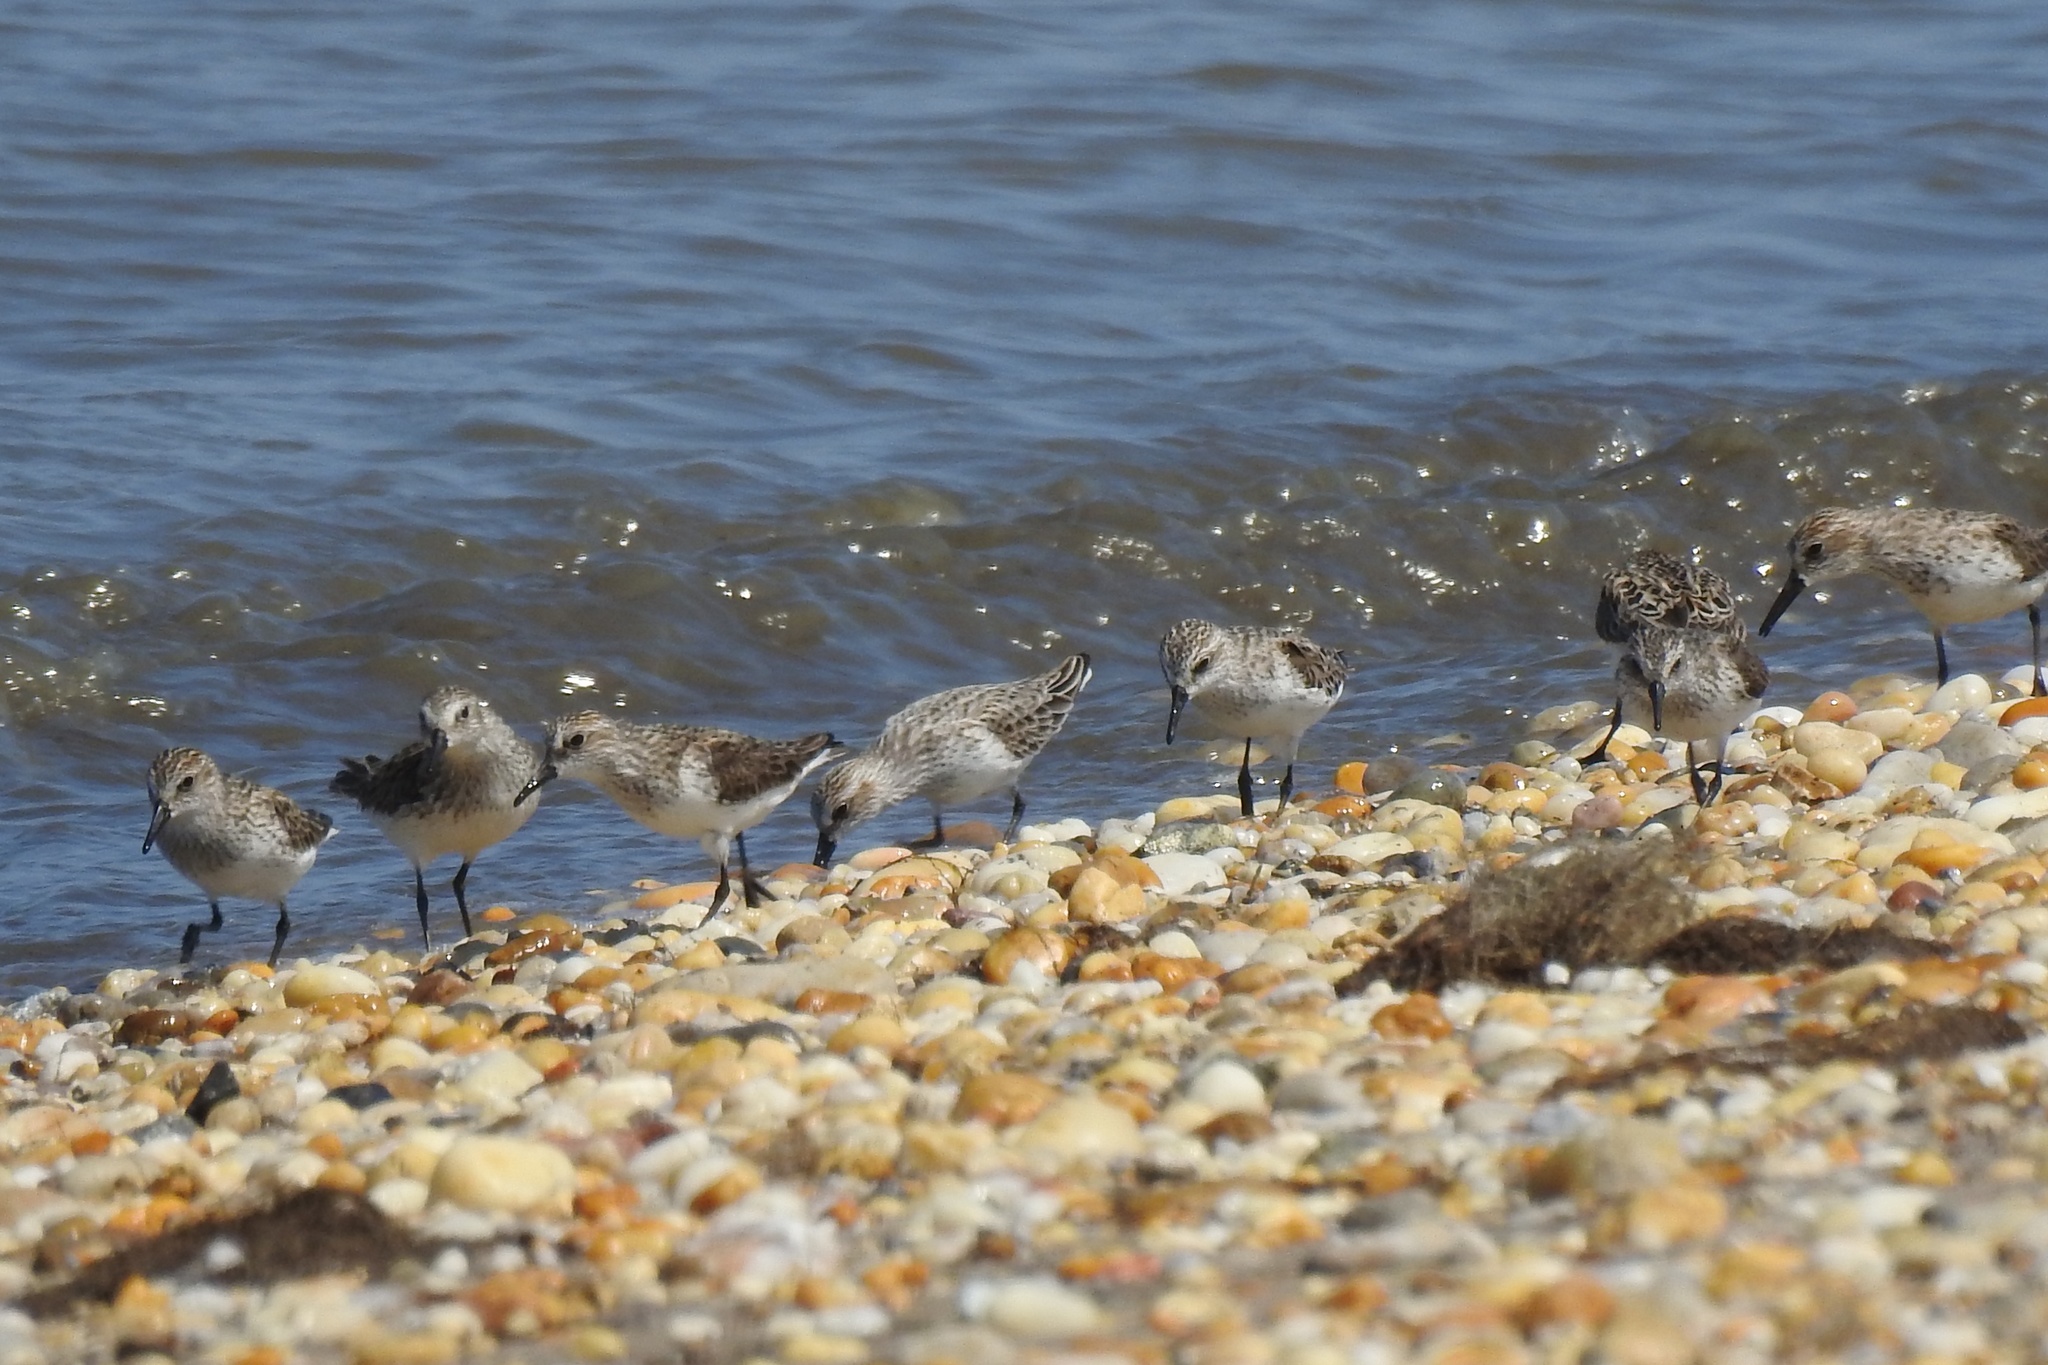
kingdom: Animalia
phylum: Chordata
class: Aves
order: Charadriiformes
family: Scolopacidae
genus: Calidris
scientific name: Calidris alba
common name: Sanderling
